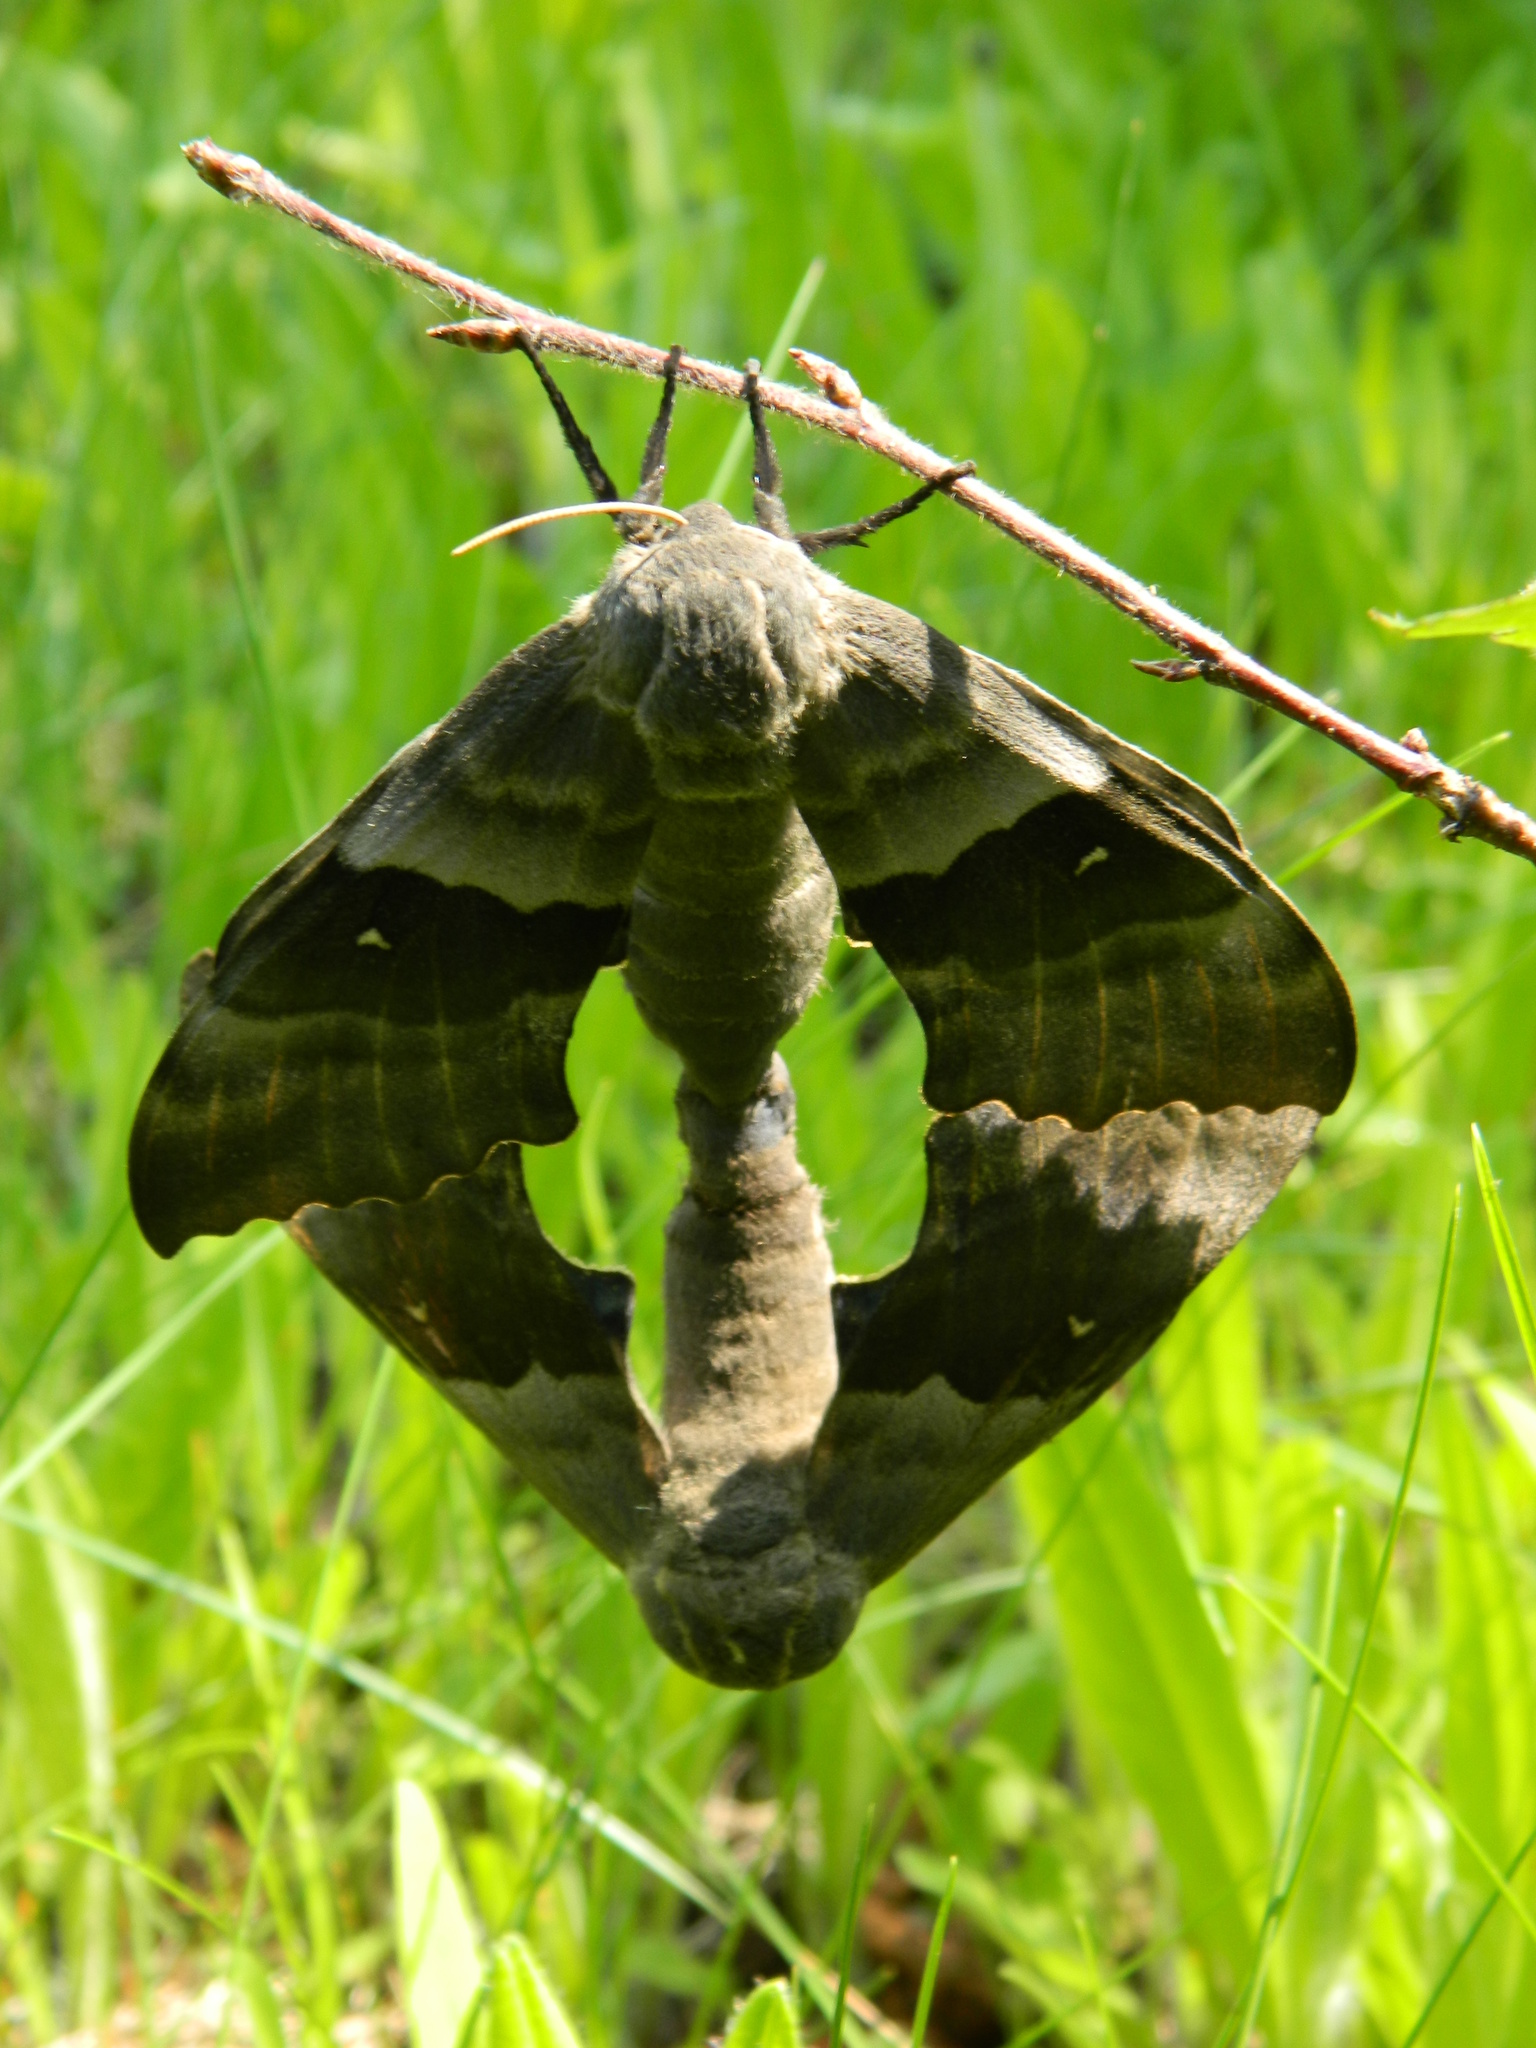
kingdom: Animalia
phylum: Arthropoda
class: Insecta
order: Lepidoptera
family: Sphingidae
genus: Pachysphinx
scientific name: Pachysphinx modesta
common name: Big poplar sphinx
